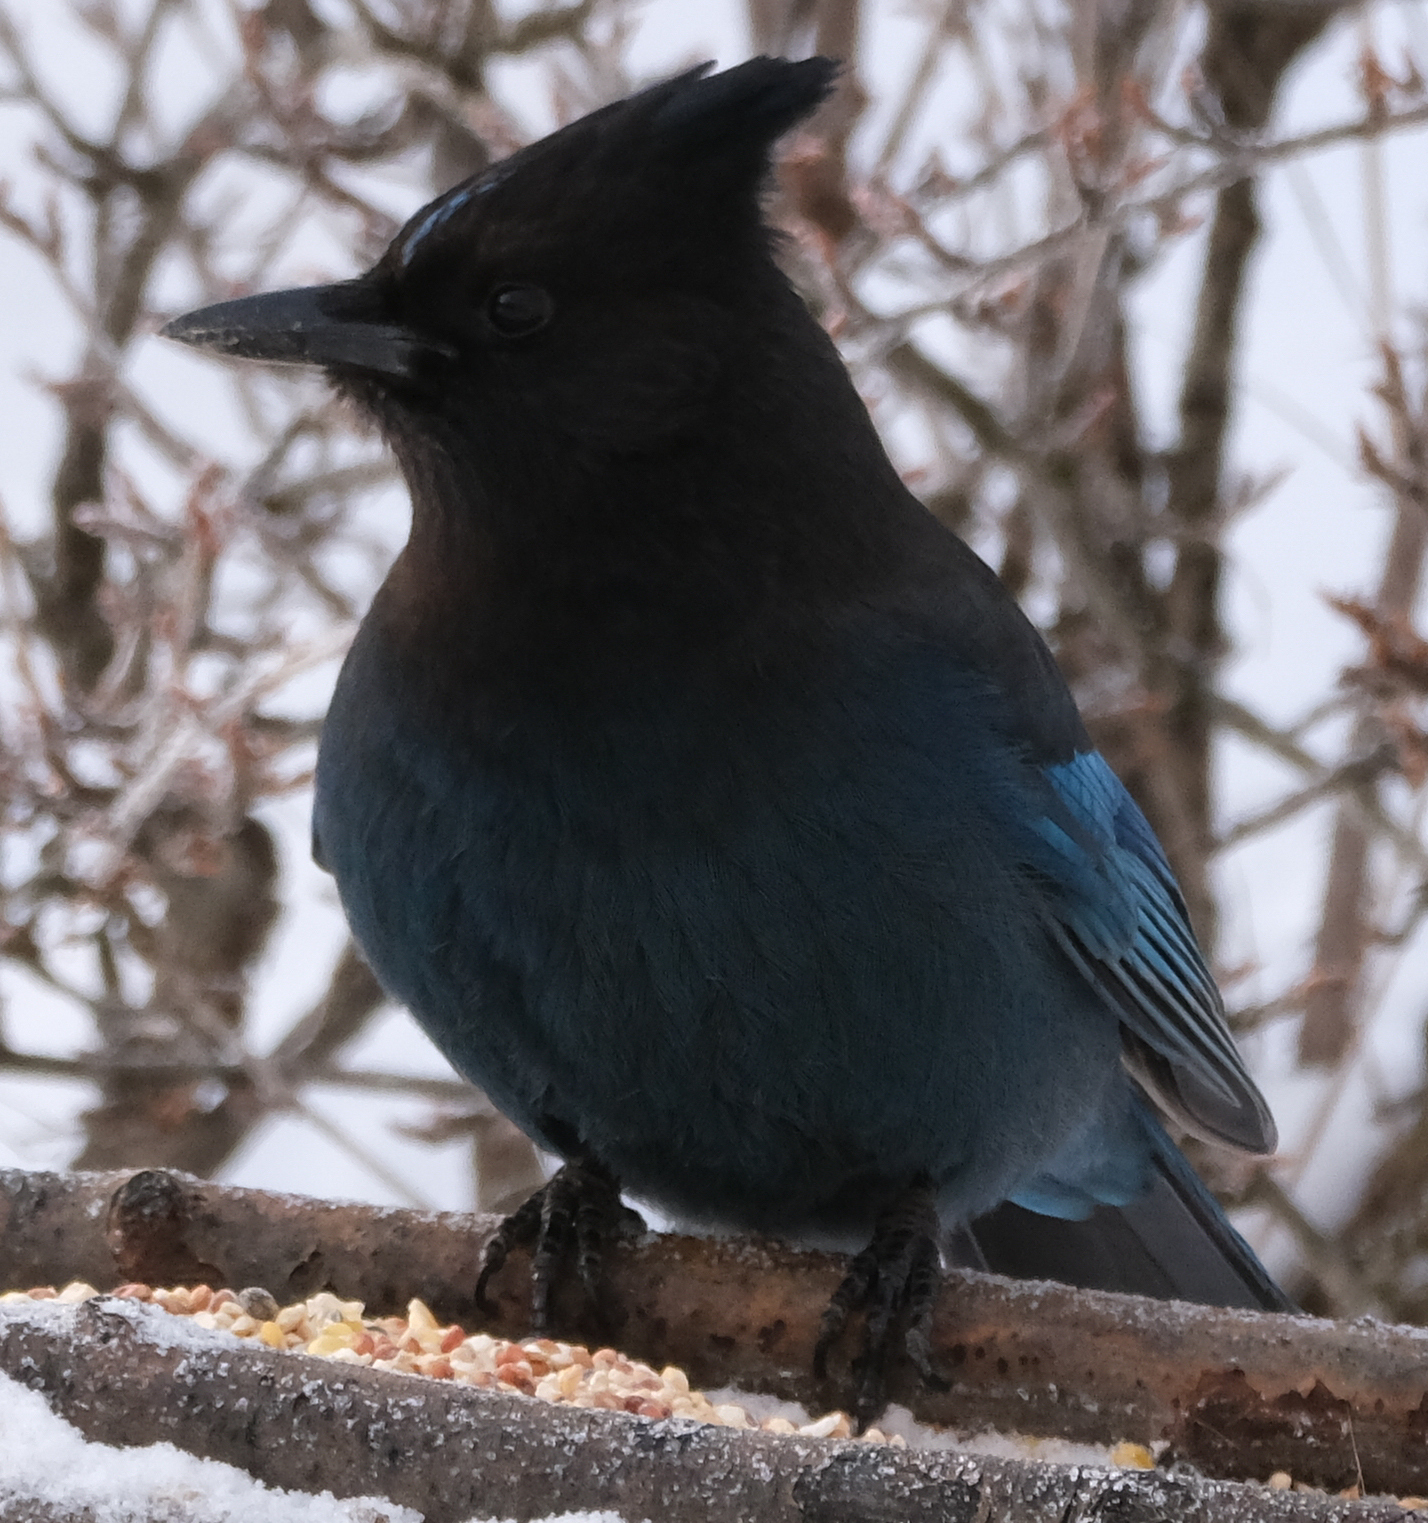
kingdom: Animalia
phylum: Chordata
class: Aves
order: Passeriformes
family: Corvidae
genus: Cyanocitta
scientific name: Cyanocitta stelleri
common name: Steller's jay
